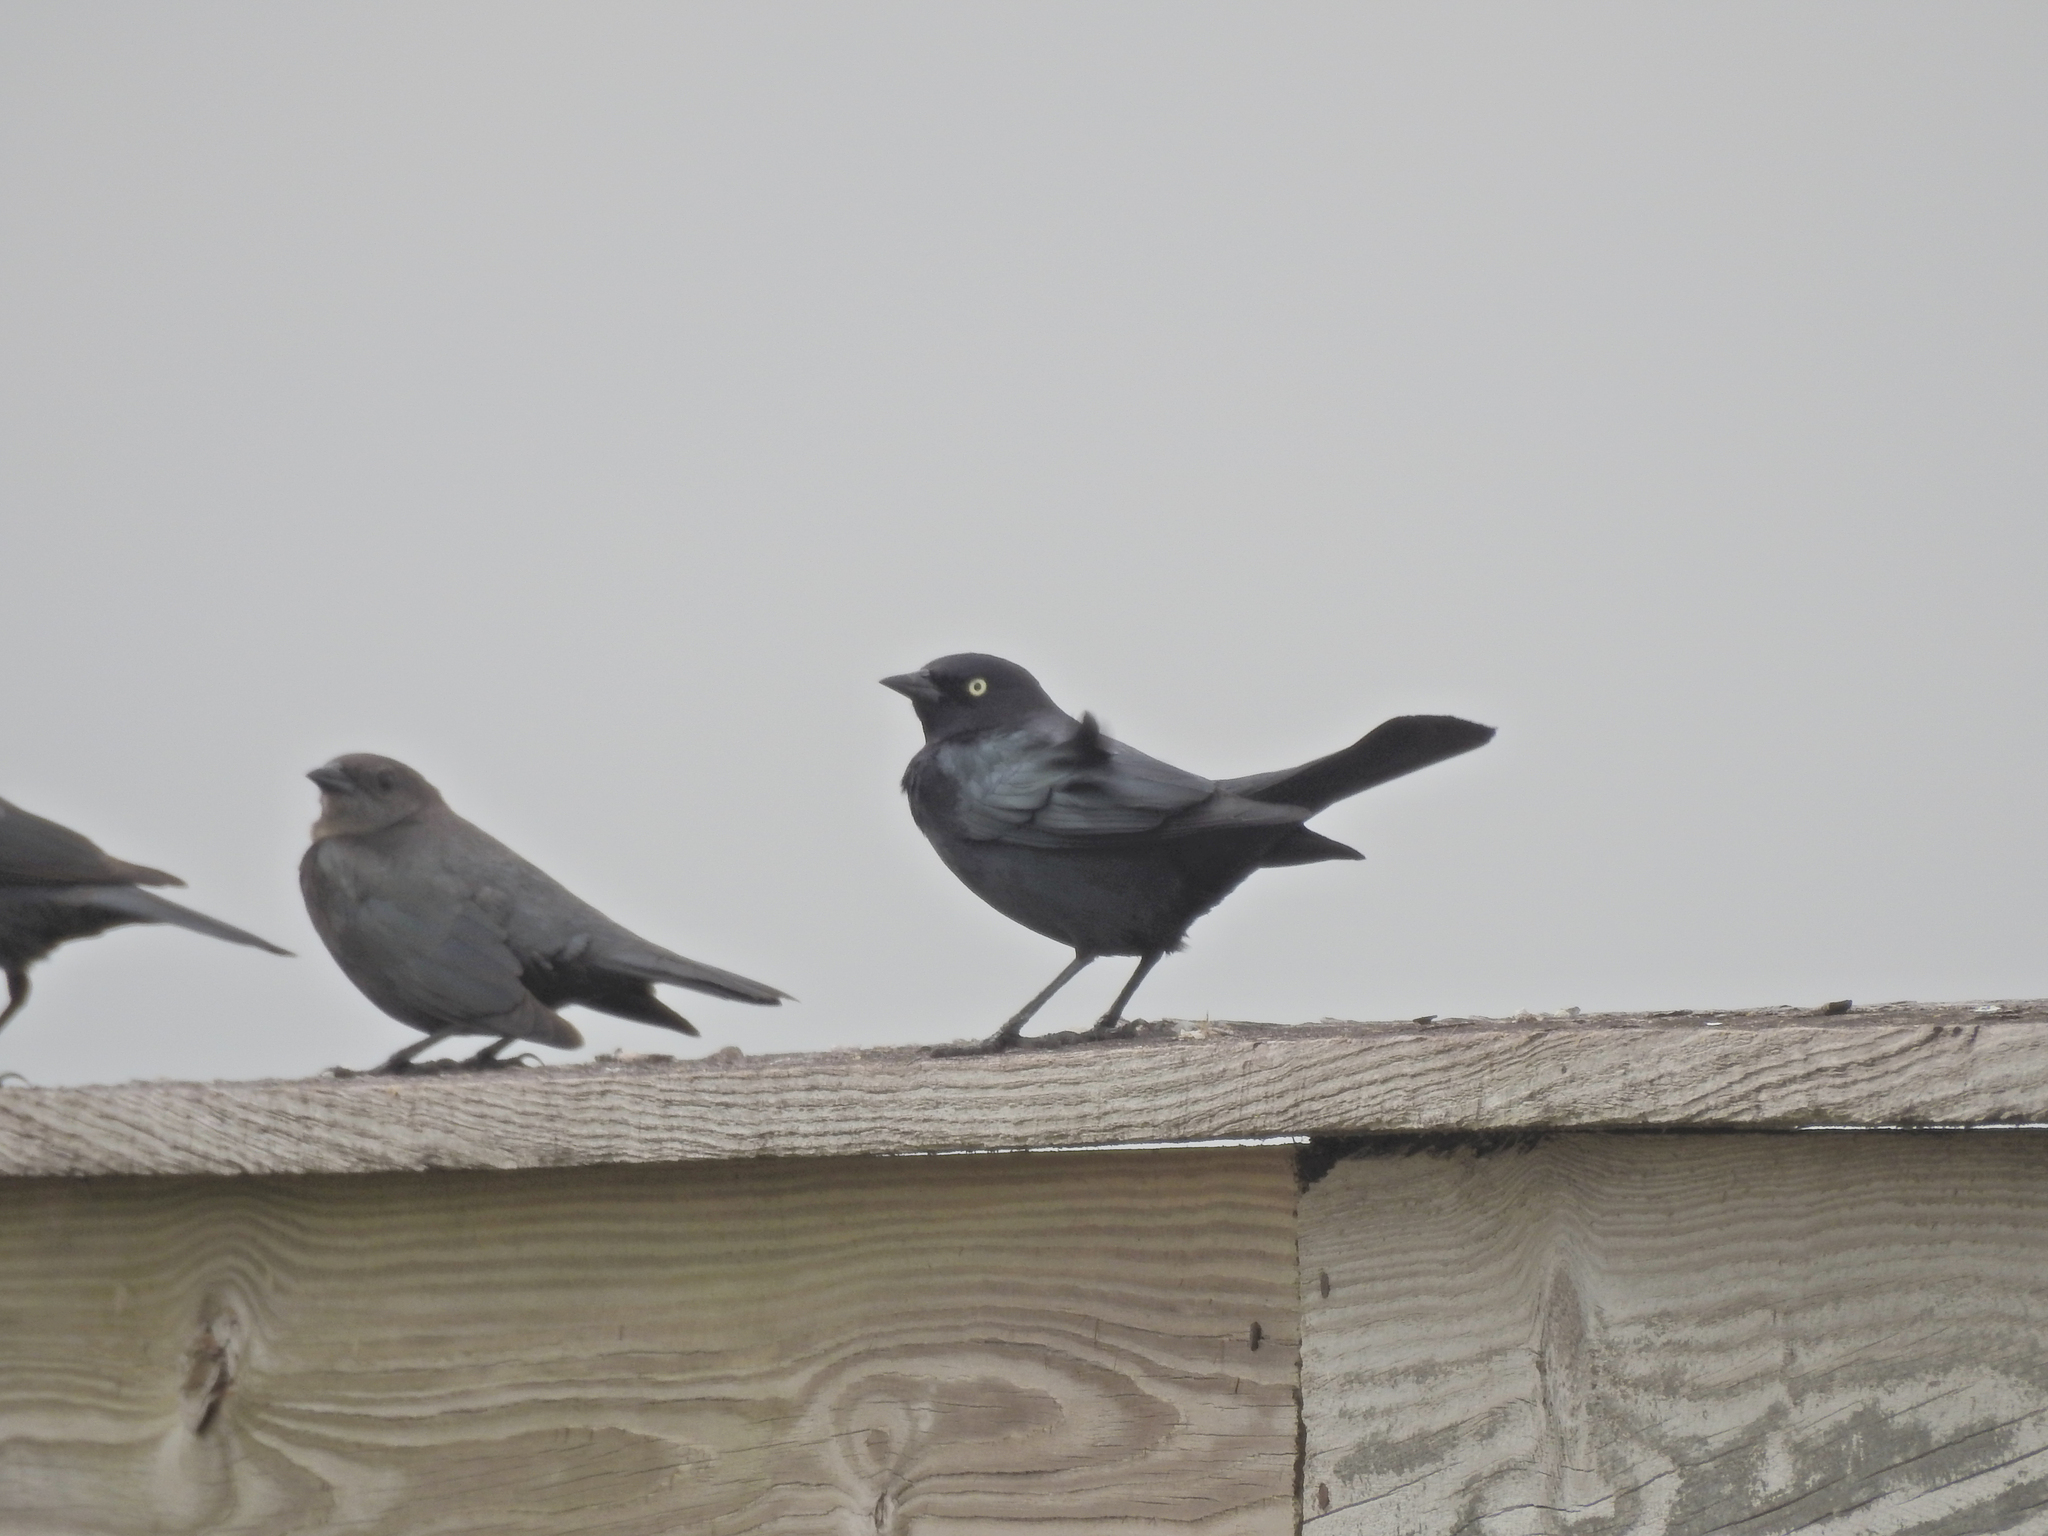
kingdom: Animalia
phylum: Chordata
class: Aves
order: Passeriformes
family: Icteridae
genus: Euphagus
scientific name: Euphagus cyanocephalus
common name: Brewer's blackbird
